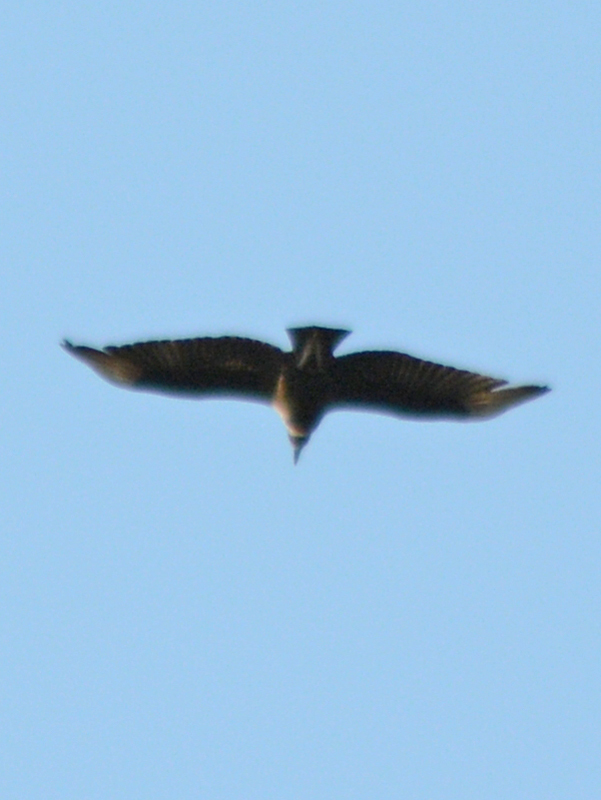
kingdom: Animalia
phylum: Chordata
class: Aves
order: Accipitriformes
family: Cathartidae
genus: Coragyps
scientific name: Coragyps atratus
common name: Black vulture
